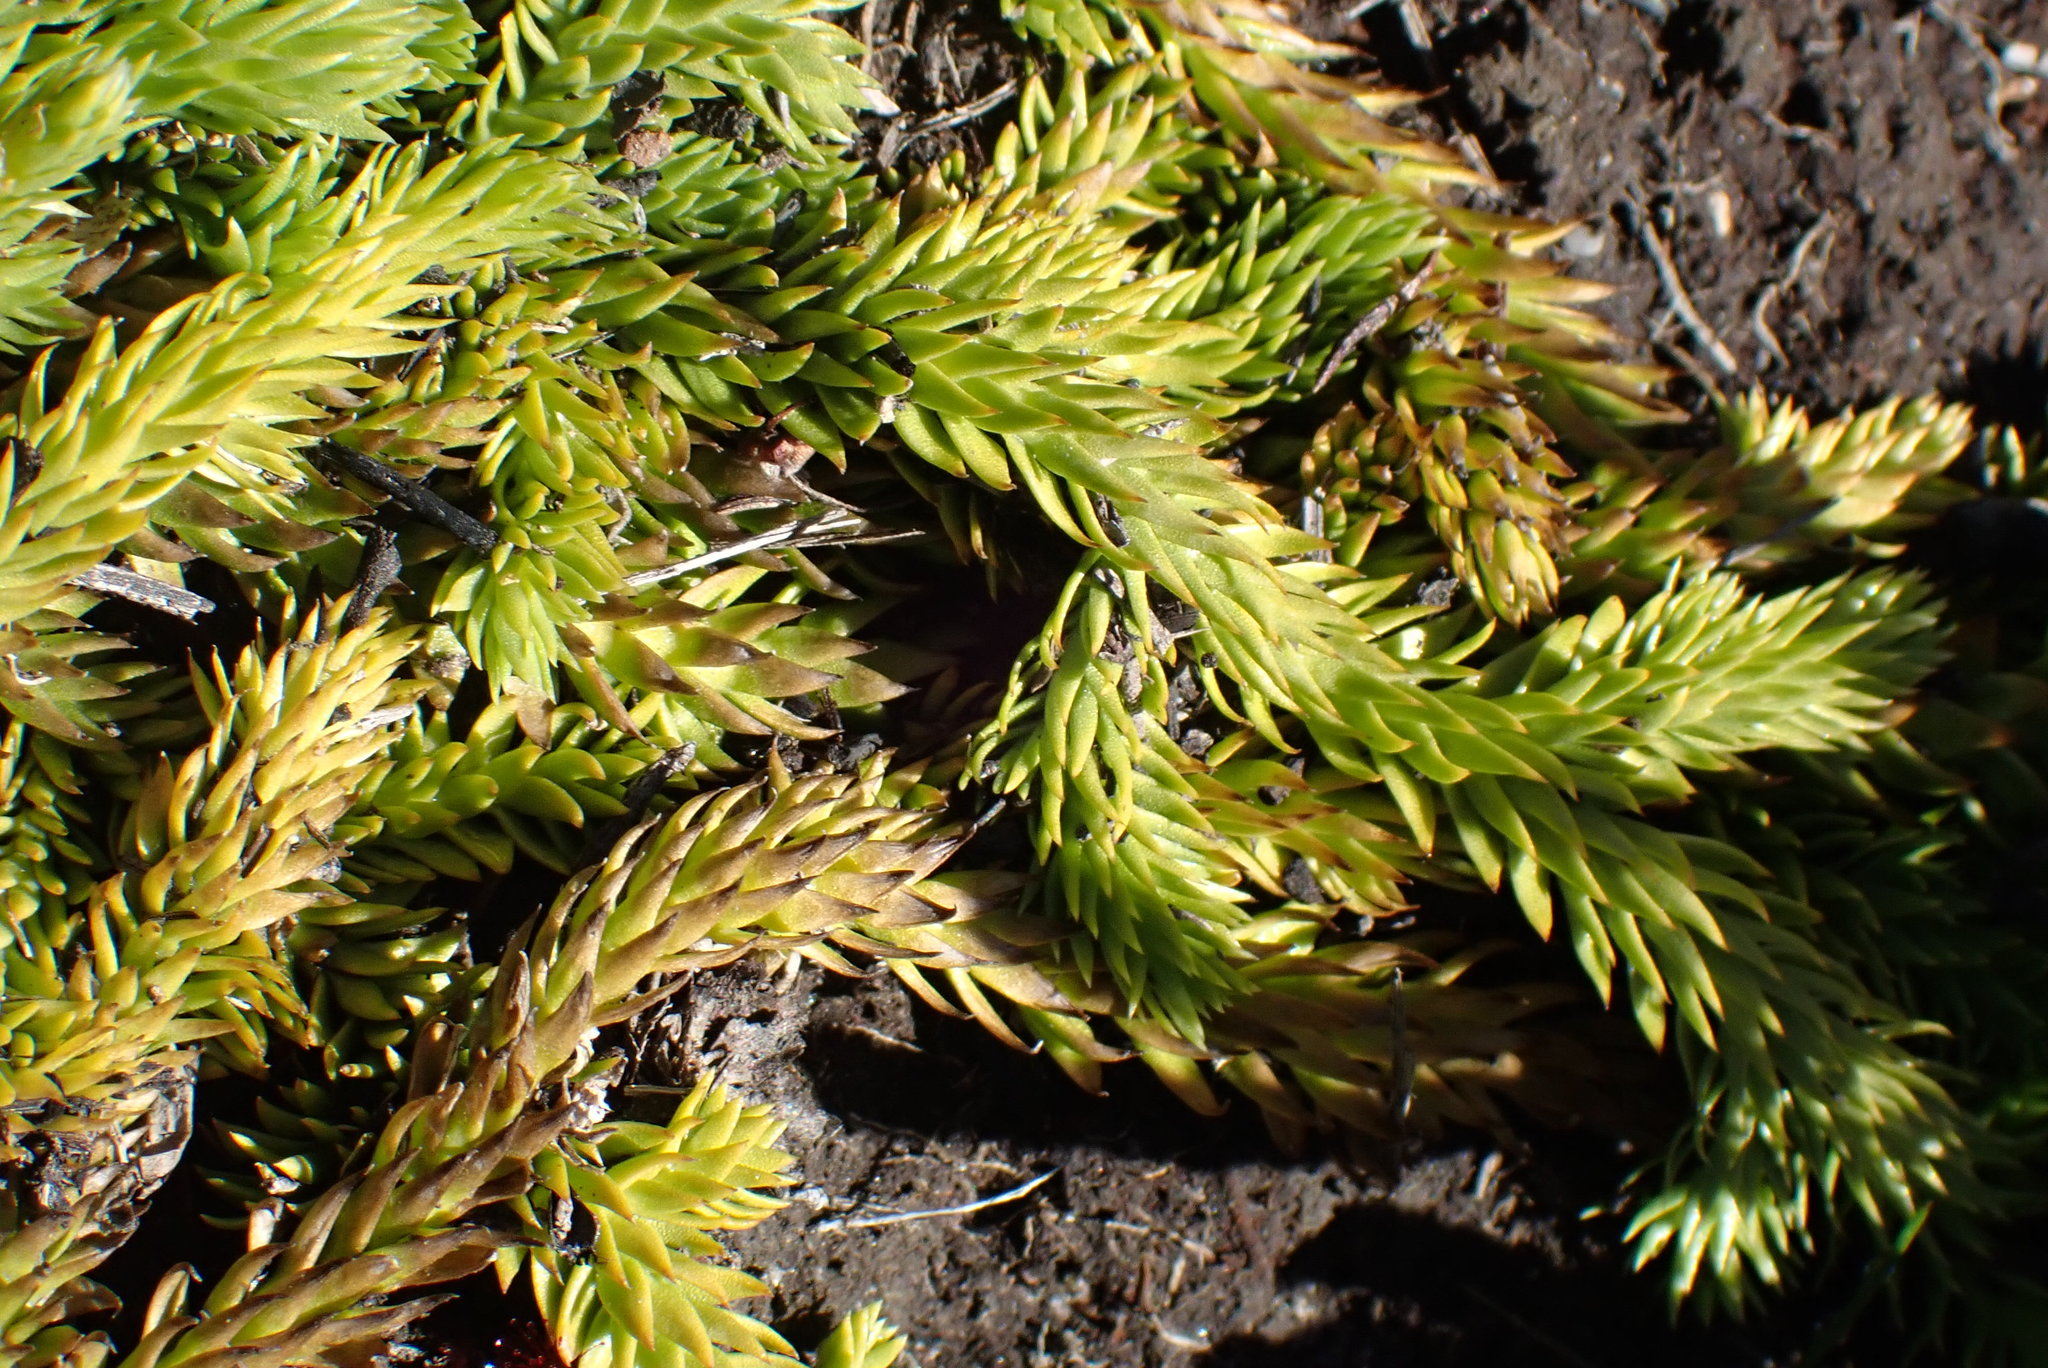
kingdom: Plantae
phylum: Tracheophyta
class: Lycopodiopsida
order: Lycopodiales
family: Lycopodiaceae
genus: Pseudolycopodiella
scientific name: Pseudolycopodiella caroliniana
